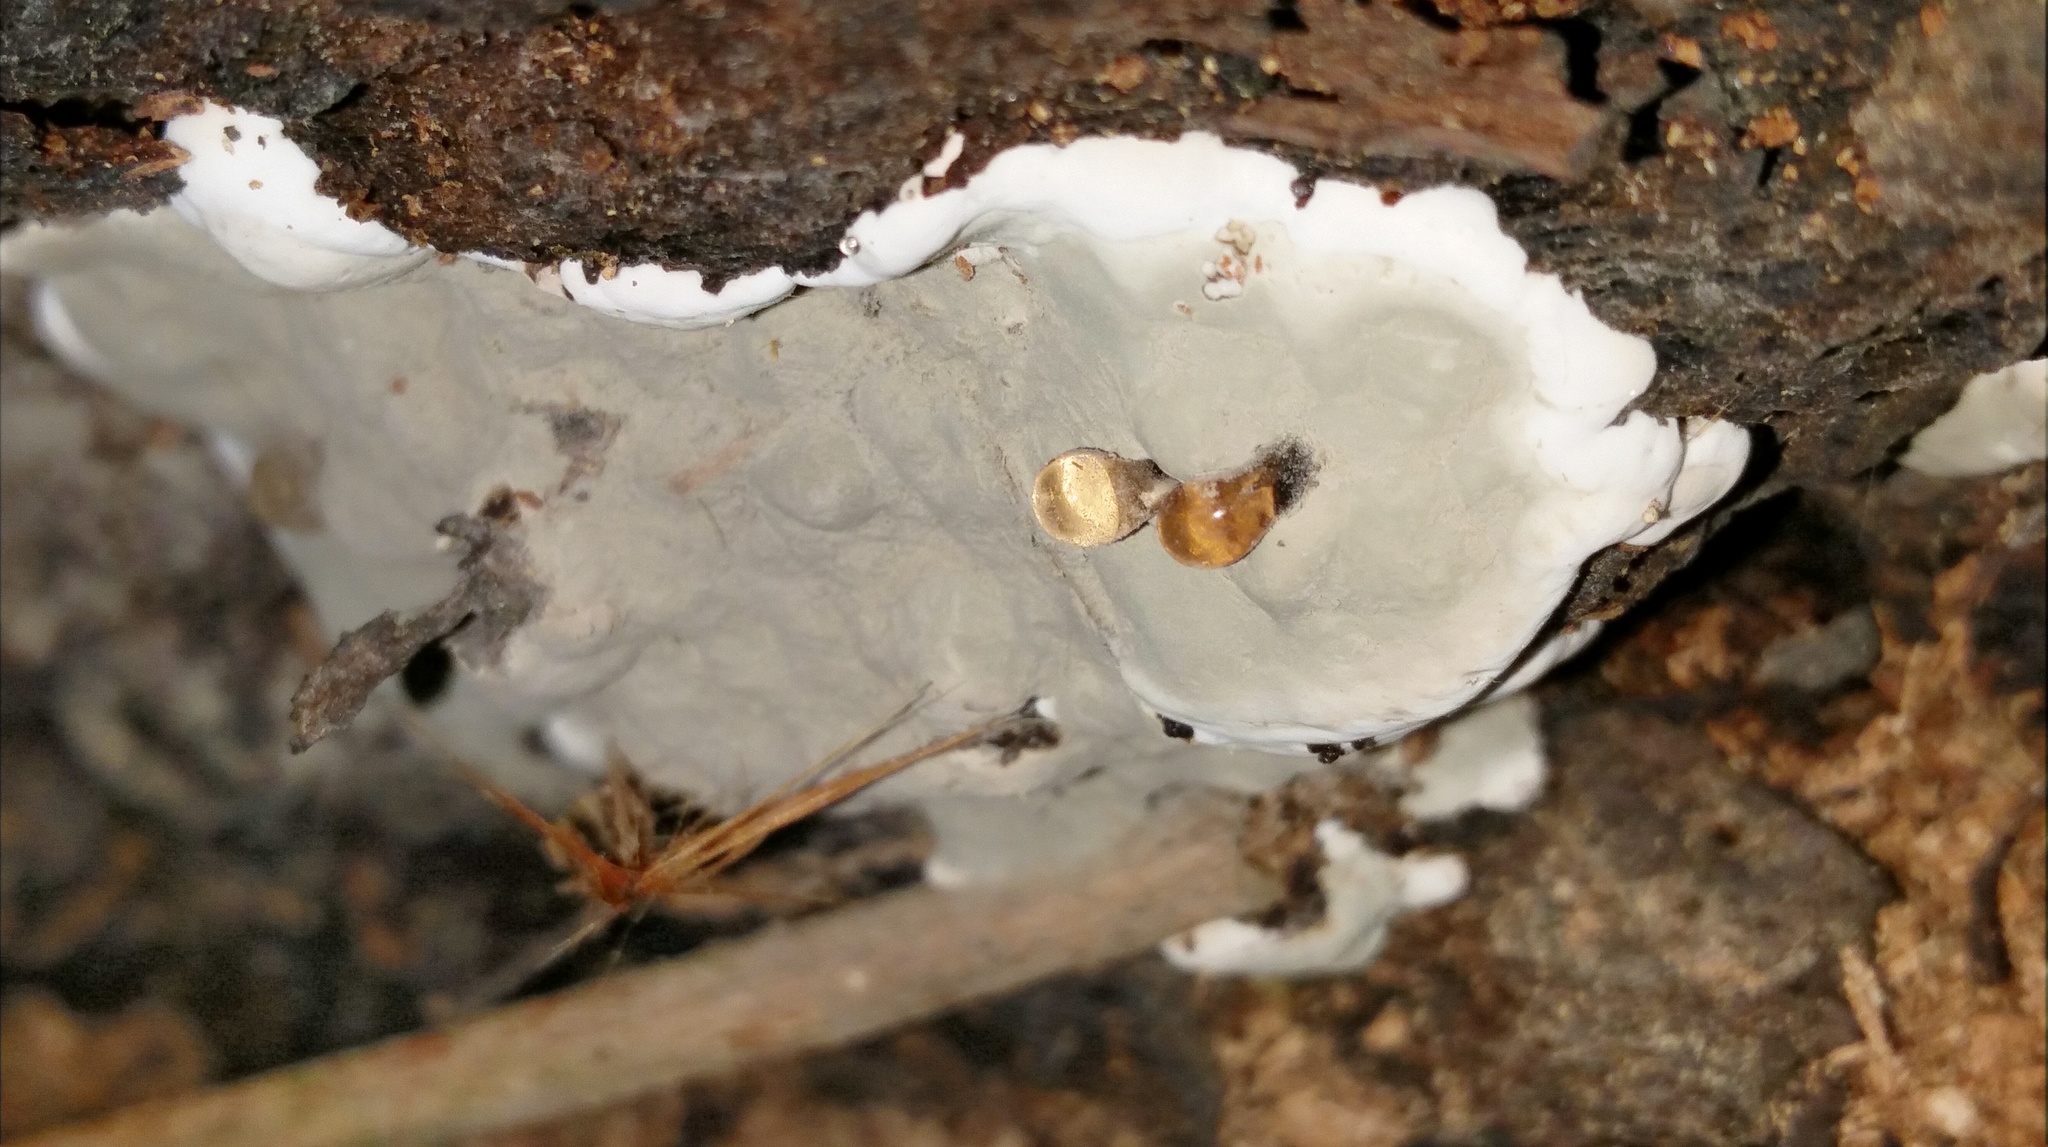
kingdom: Fungi
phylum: Ascomycota
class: Sordariomycetes
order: Xylariales
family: Xylariaceae
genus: Kretzschmaria
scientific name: Kretzschmaria deusta
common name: Brittle cinder
